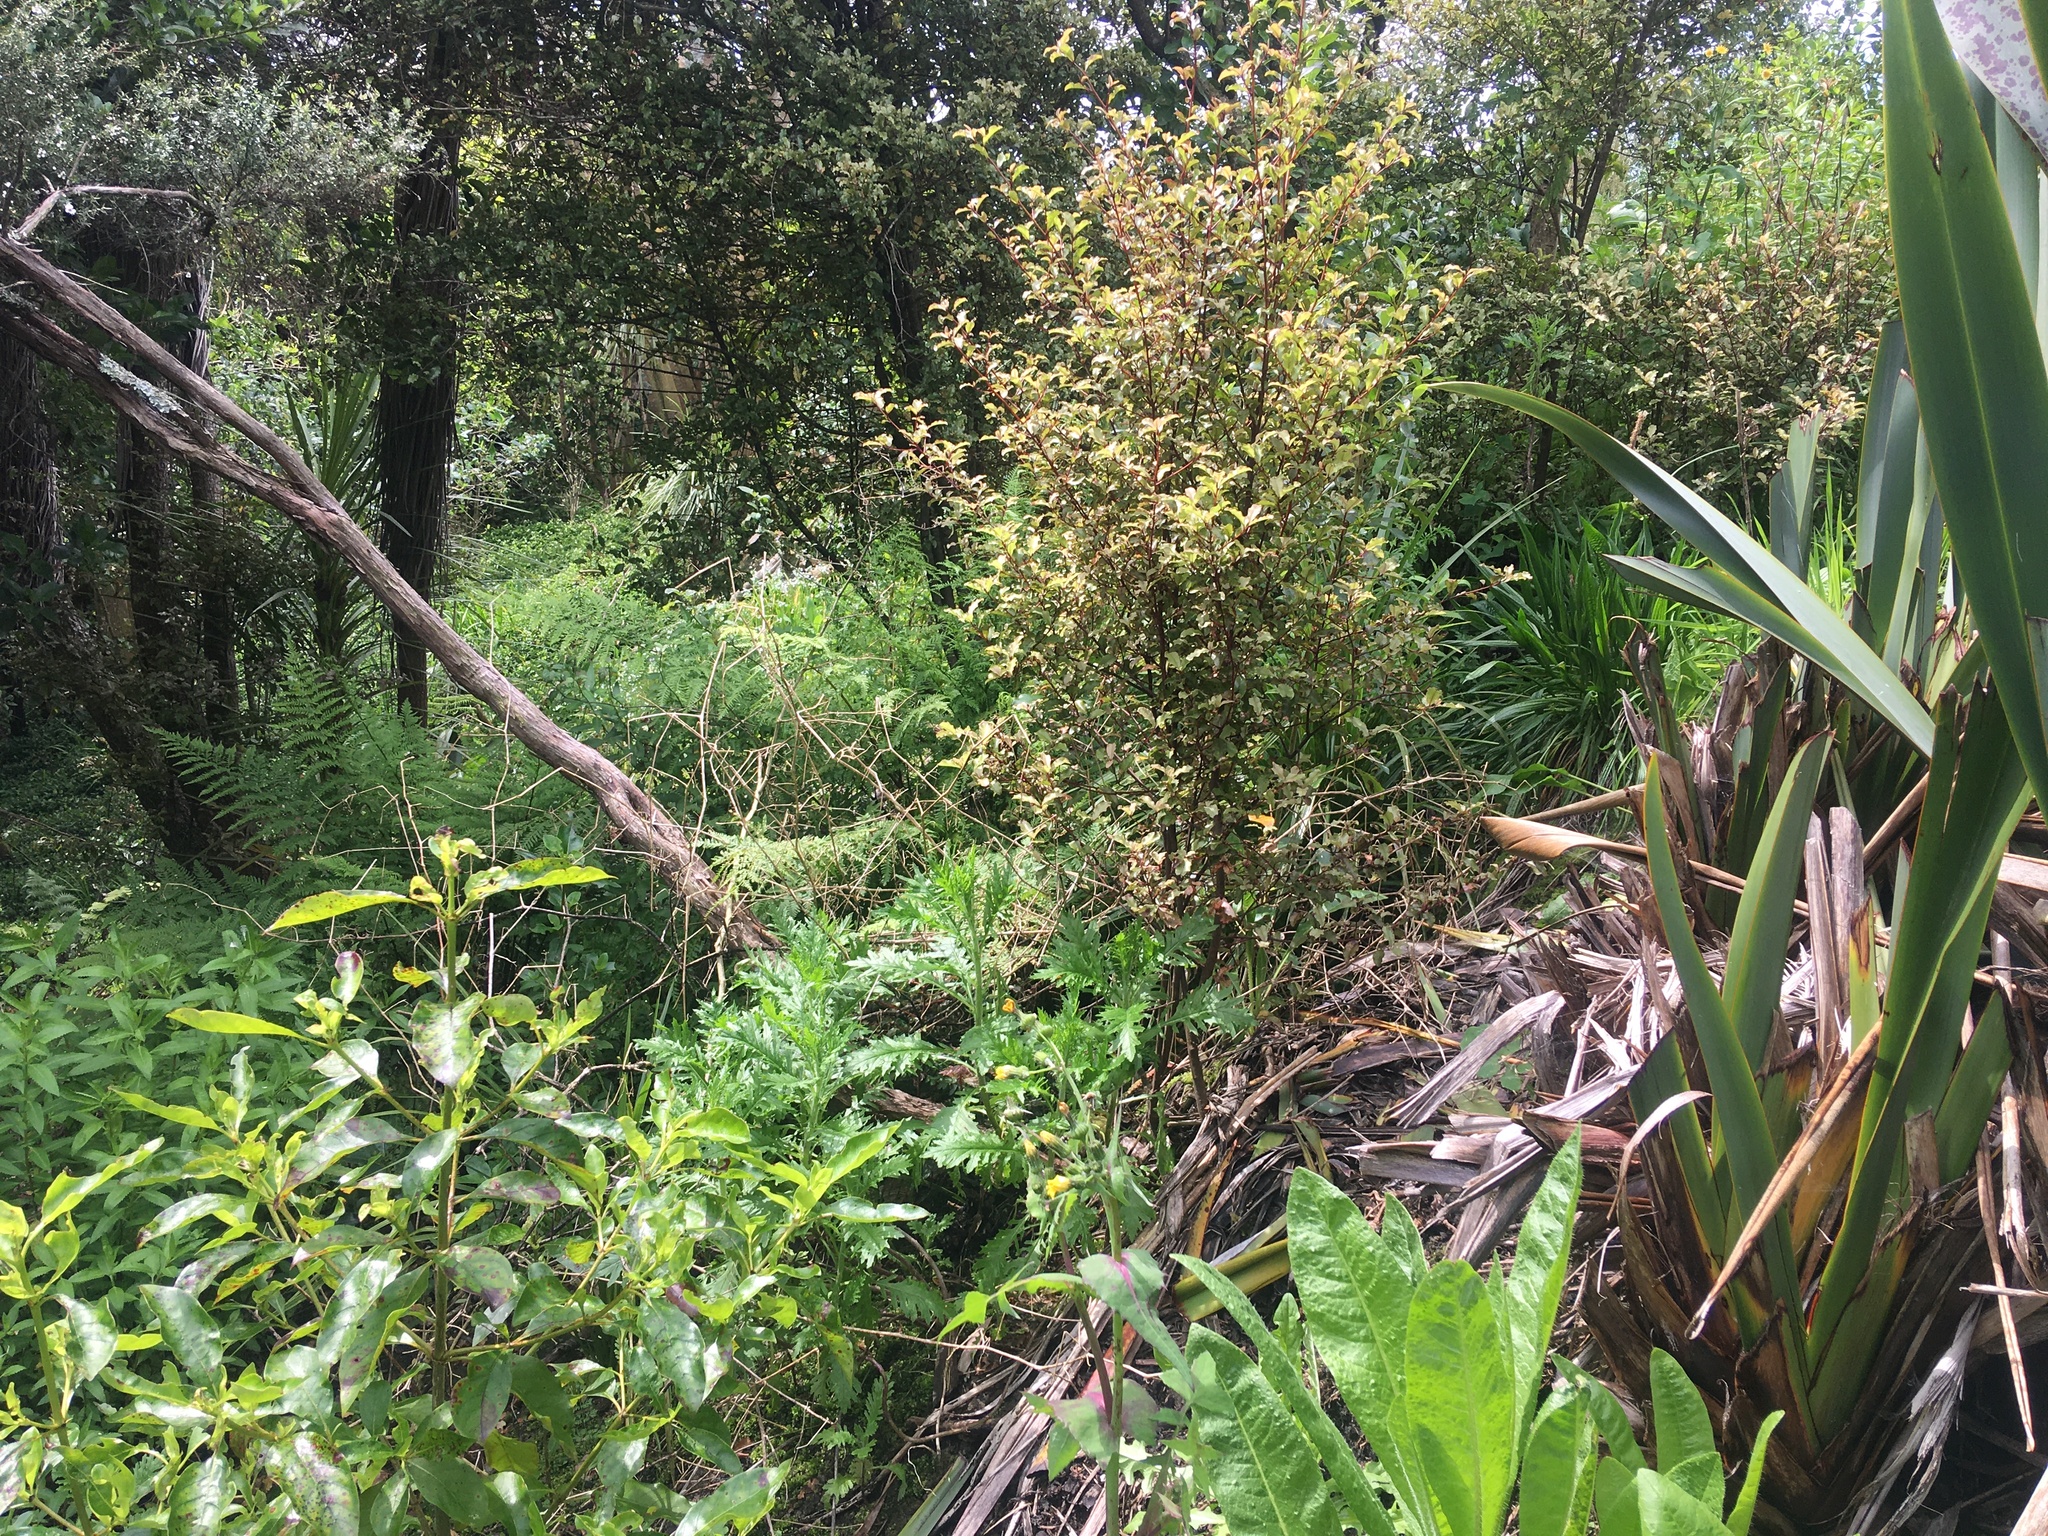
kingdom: Plantae
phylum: Tracheophyta
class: Magnoliopsida
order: Ericales
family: Primulaceae
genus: Myrsine
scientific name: Myrsine australis
